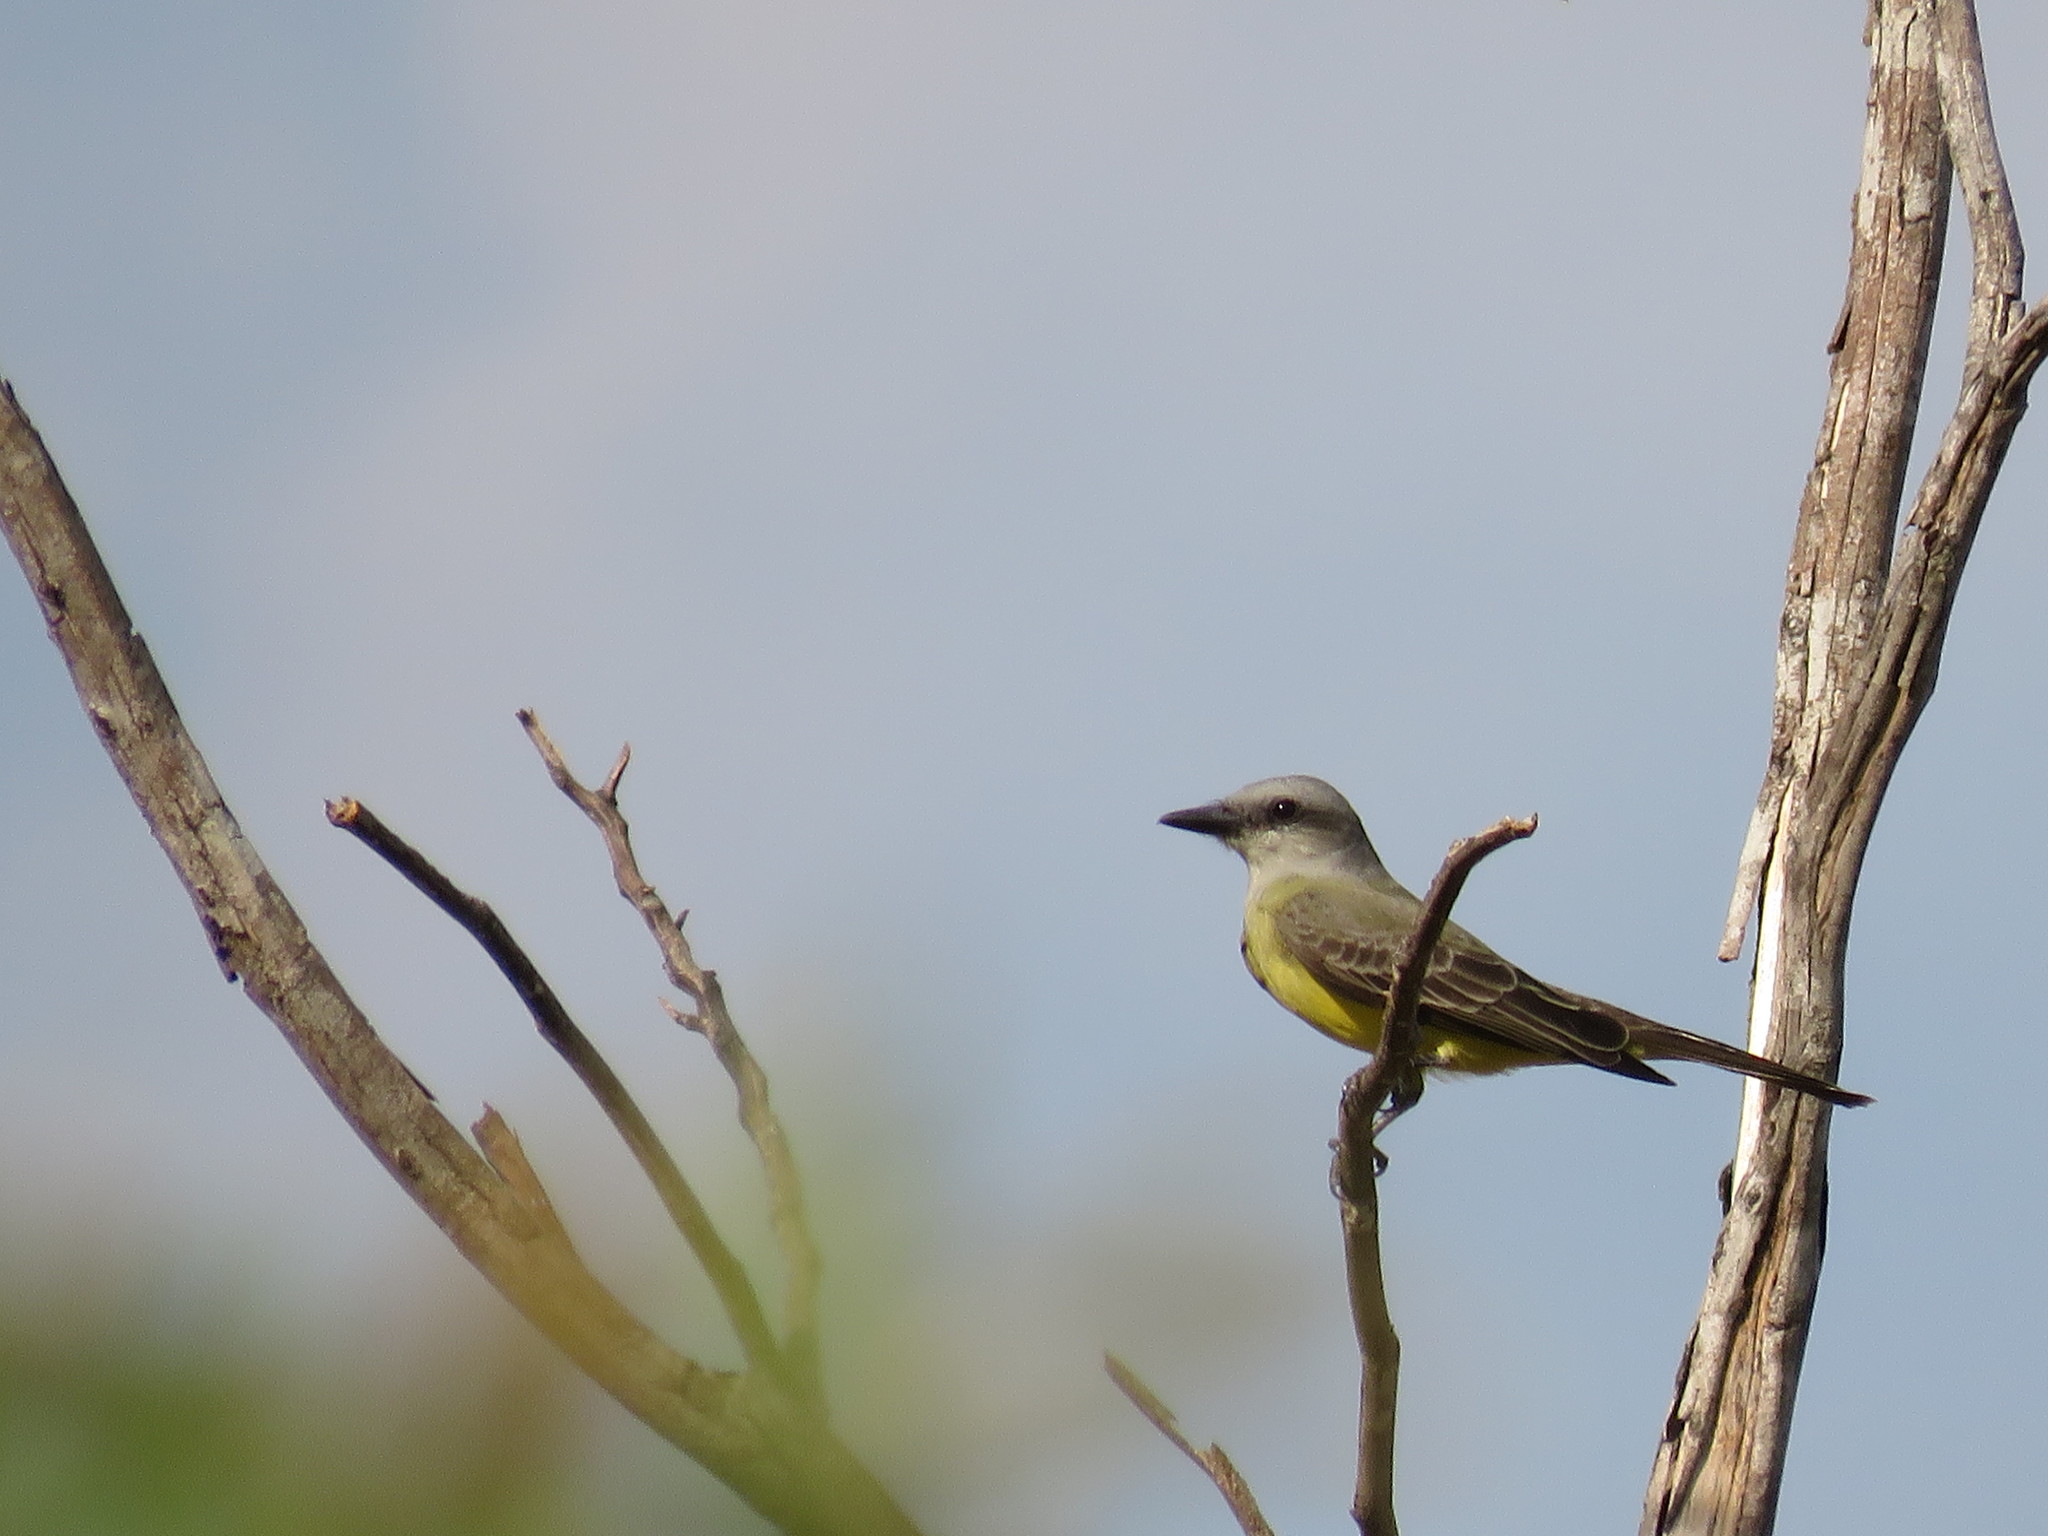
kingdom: Animalia
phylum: Chordata
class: Aves
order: Passeriformes
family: Tyrannidae
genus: Tyrannus
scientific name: Tyrannus melancholicus
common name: Tropical kingbird
